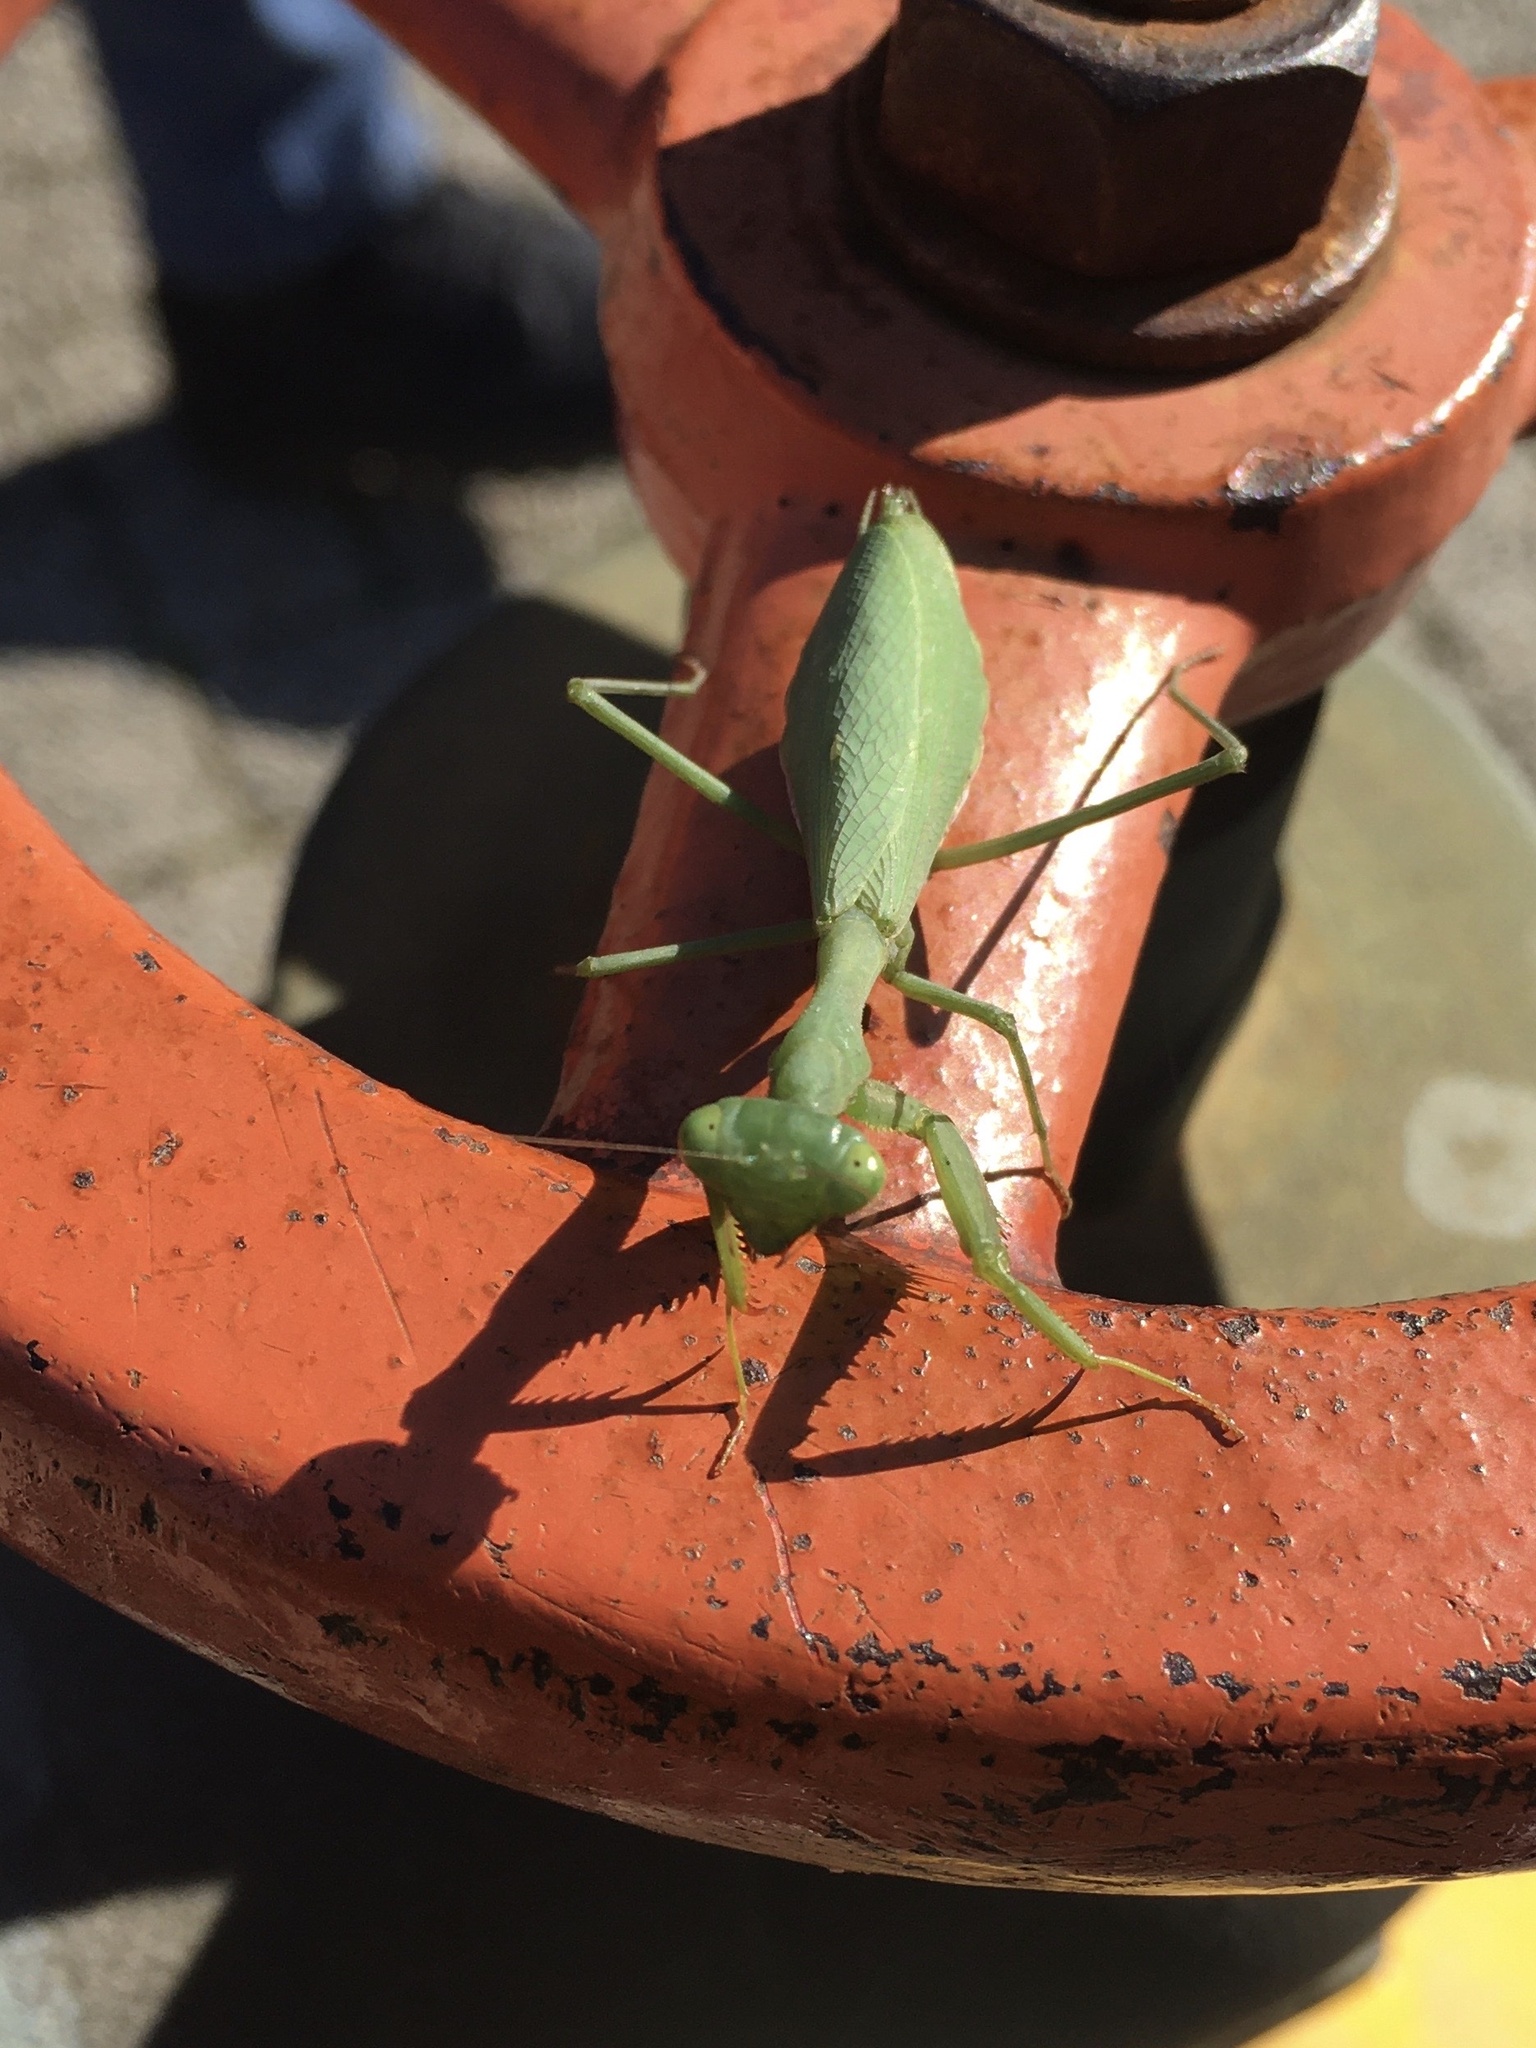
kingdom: Animalia
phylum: Arthropoda
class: Insecta
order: Mantodea
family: Miomantidae
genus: Miomantis
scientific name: Miomantis caffra
